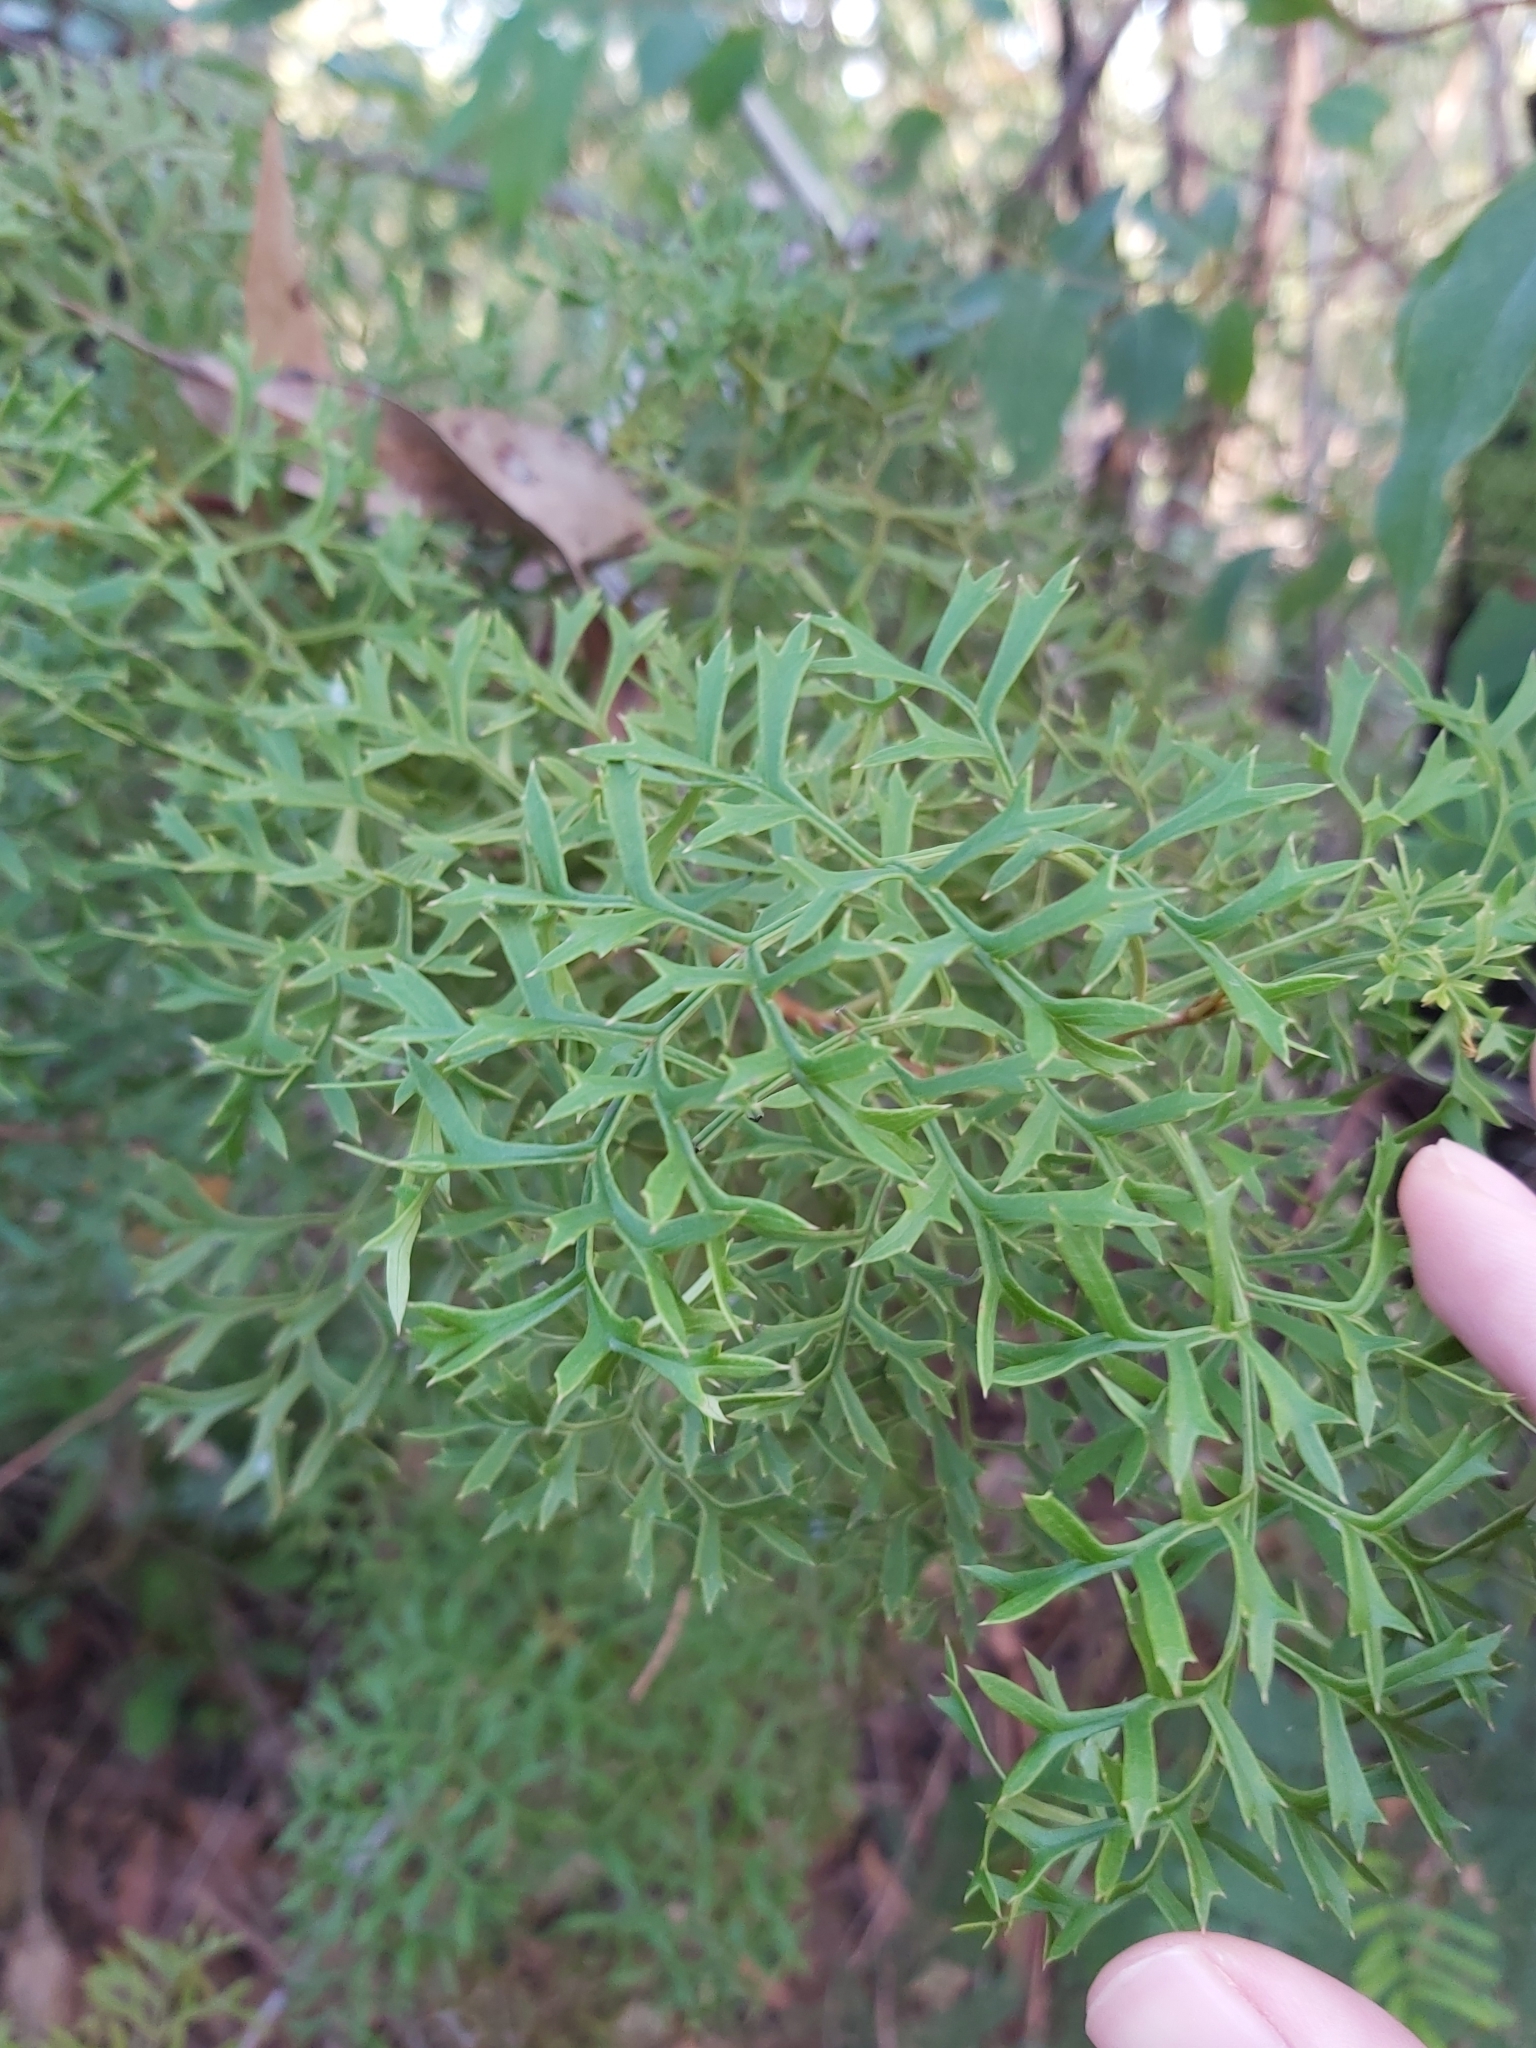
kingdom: Plantae
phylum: Tracheophyta
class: Magnoliopsida
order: Proteales
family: Proteaceae
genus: Lomatia
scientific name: Lomatia silaifolia
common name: Crinklebush
